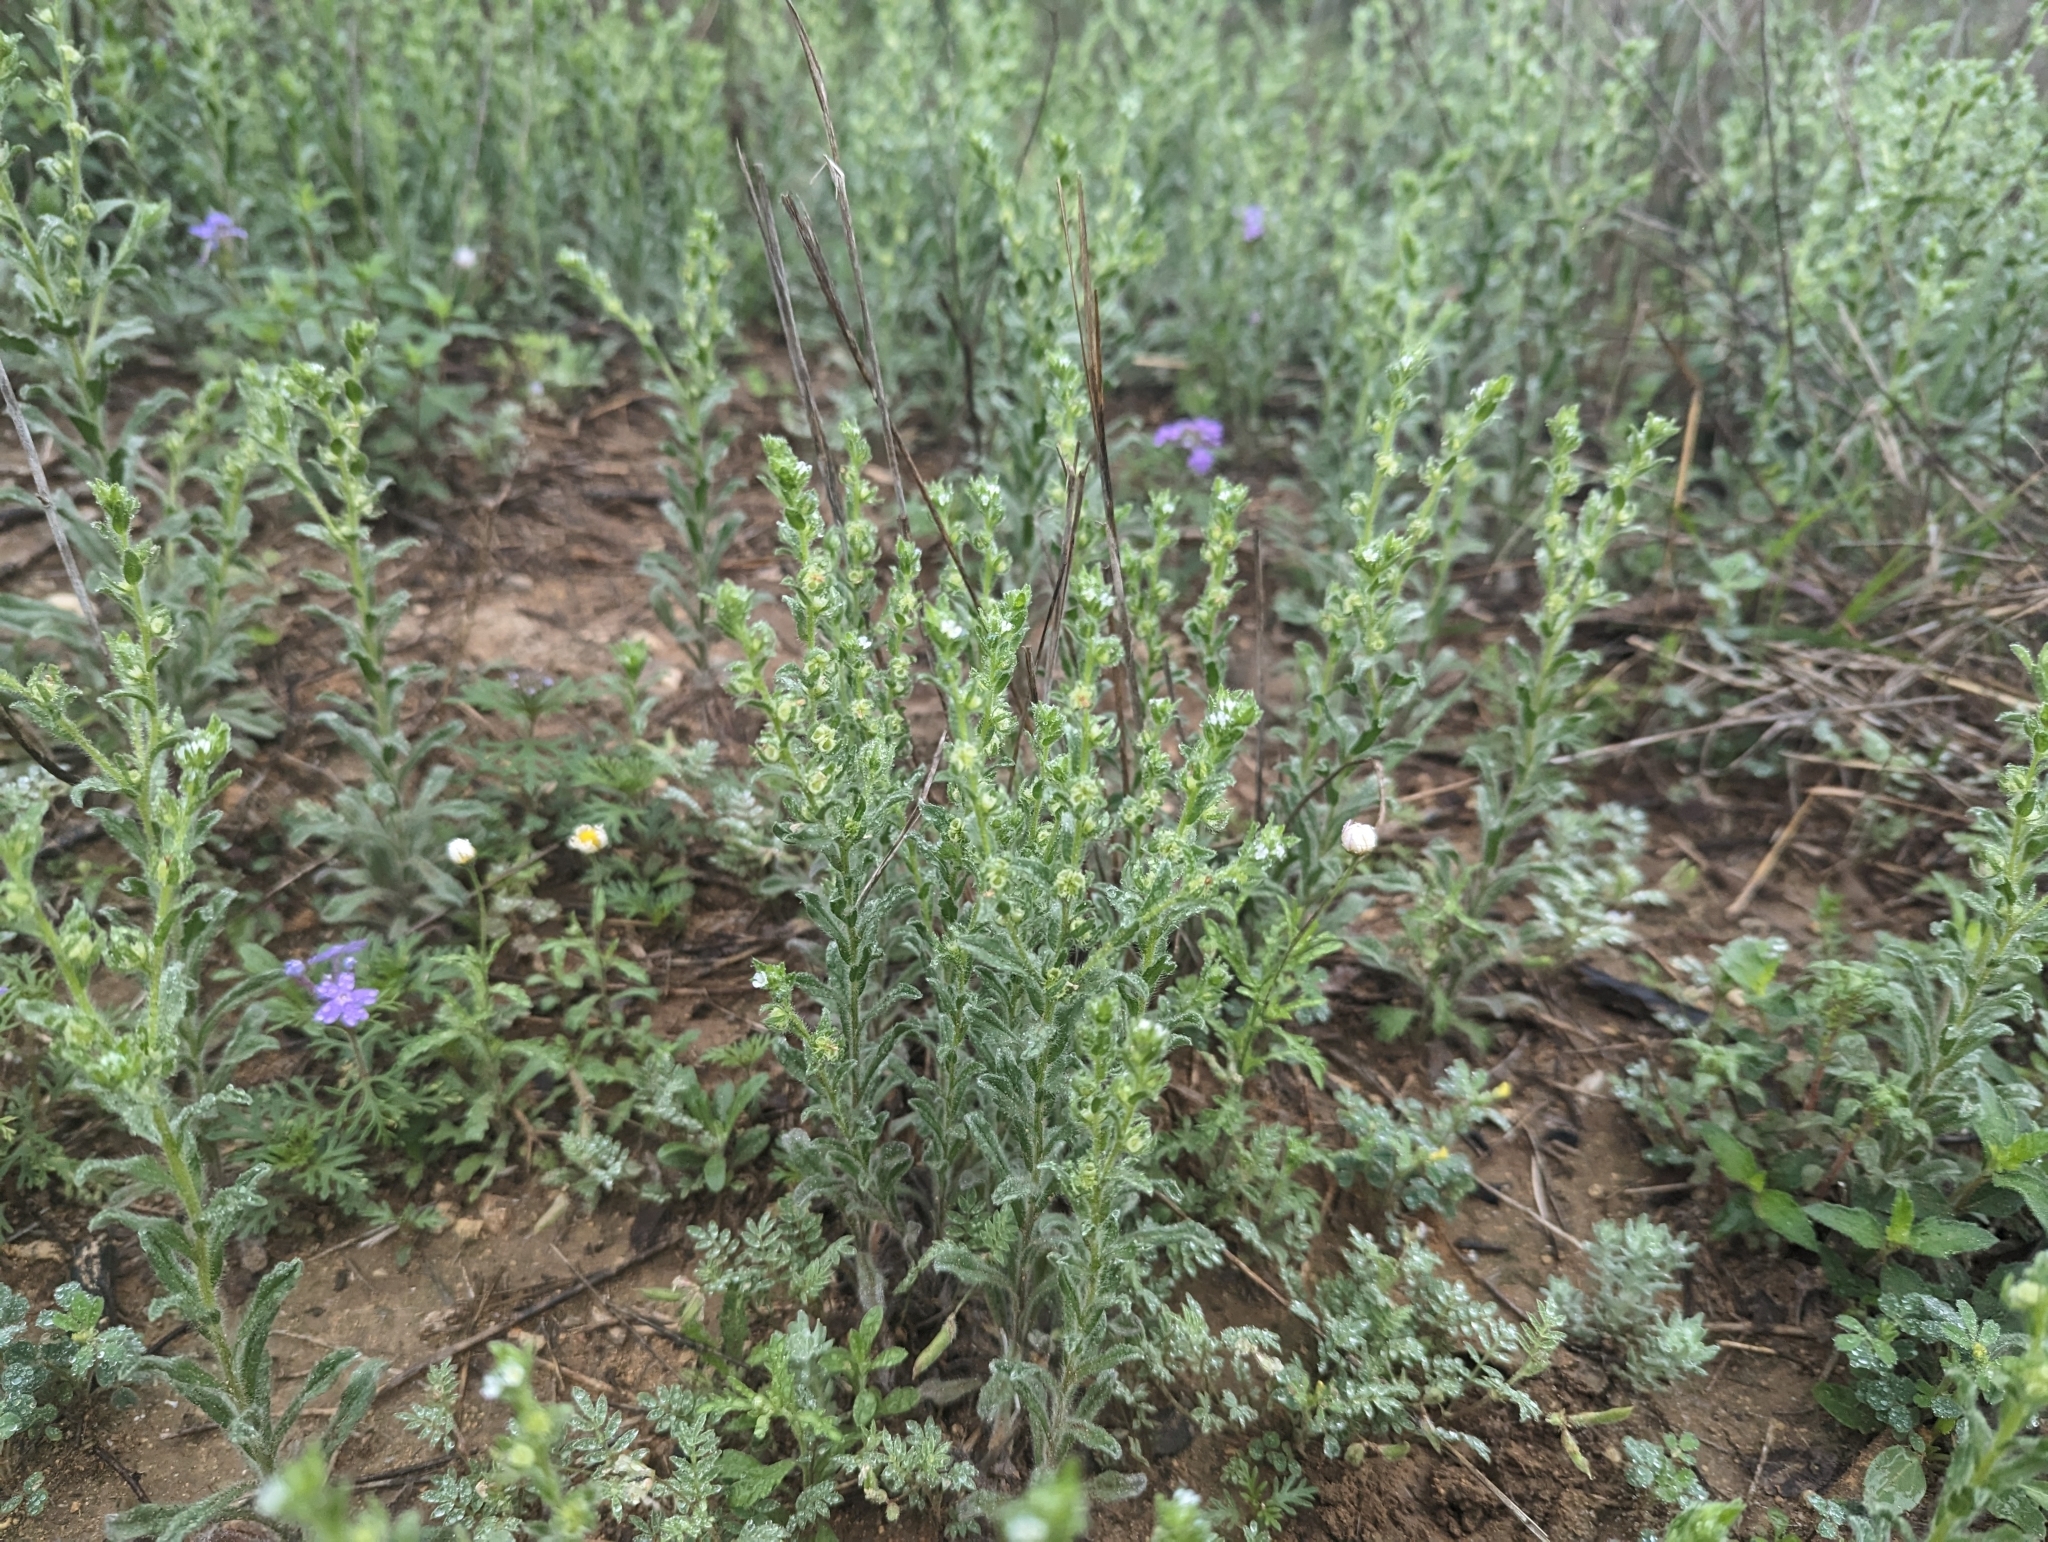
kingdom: Plantae
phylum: Tracheophyta
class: Magnoliopsida
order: Boraginales
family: Boraginaceae
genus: Lappula
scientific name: Lappula occidentalis
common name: Western stickseed
